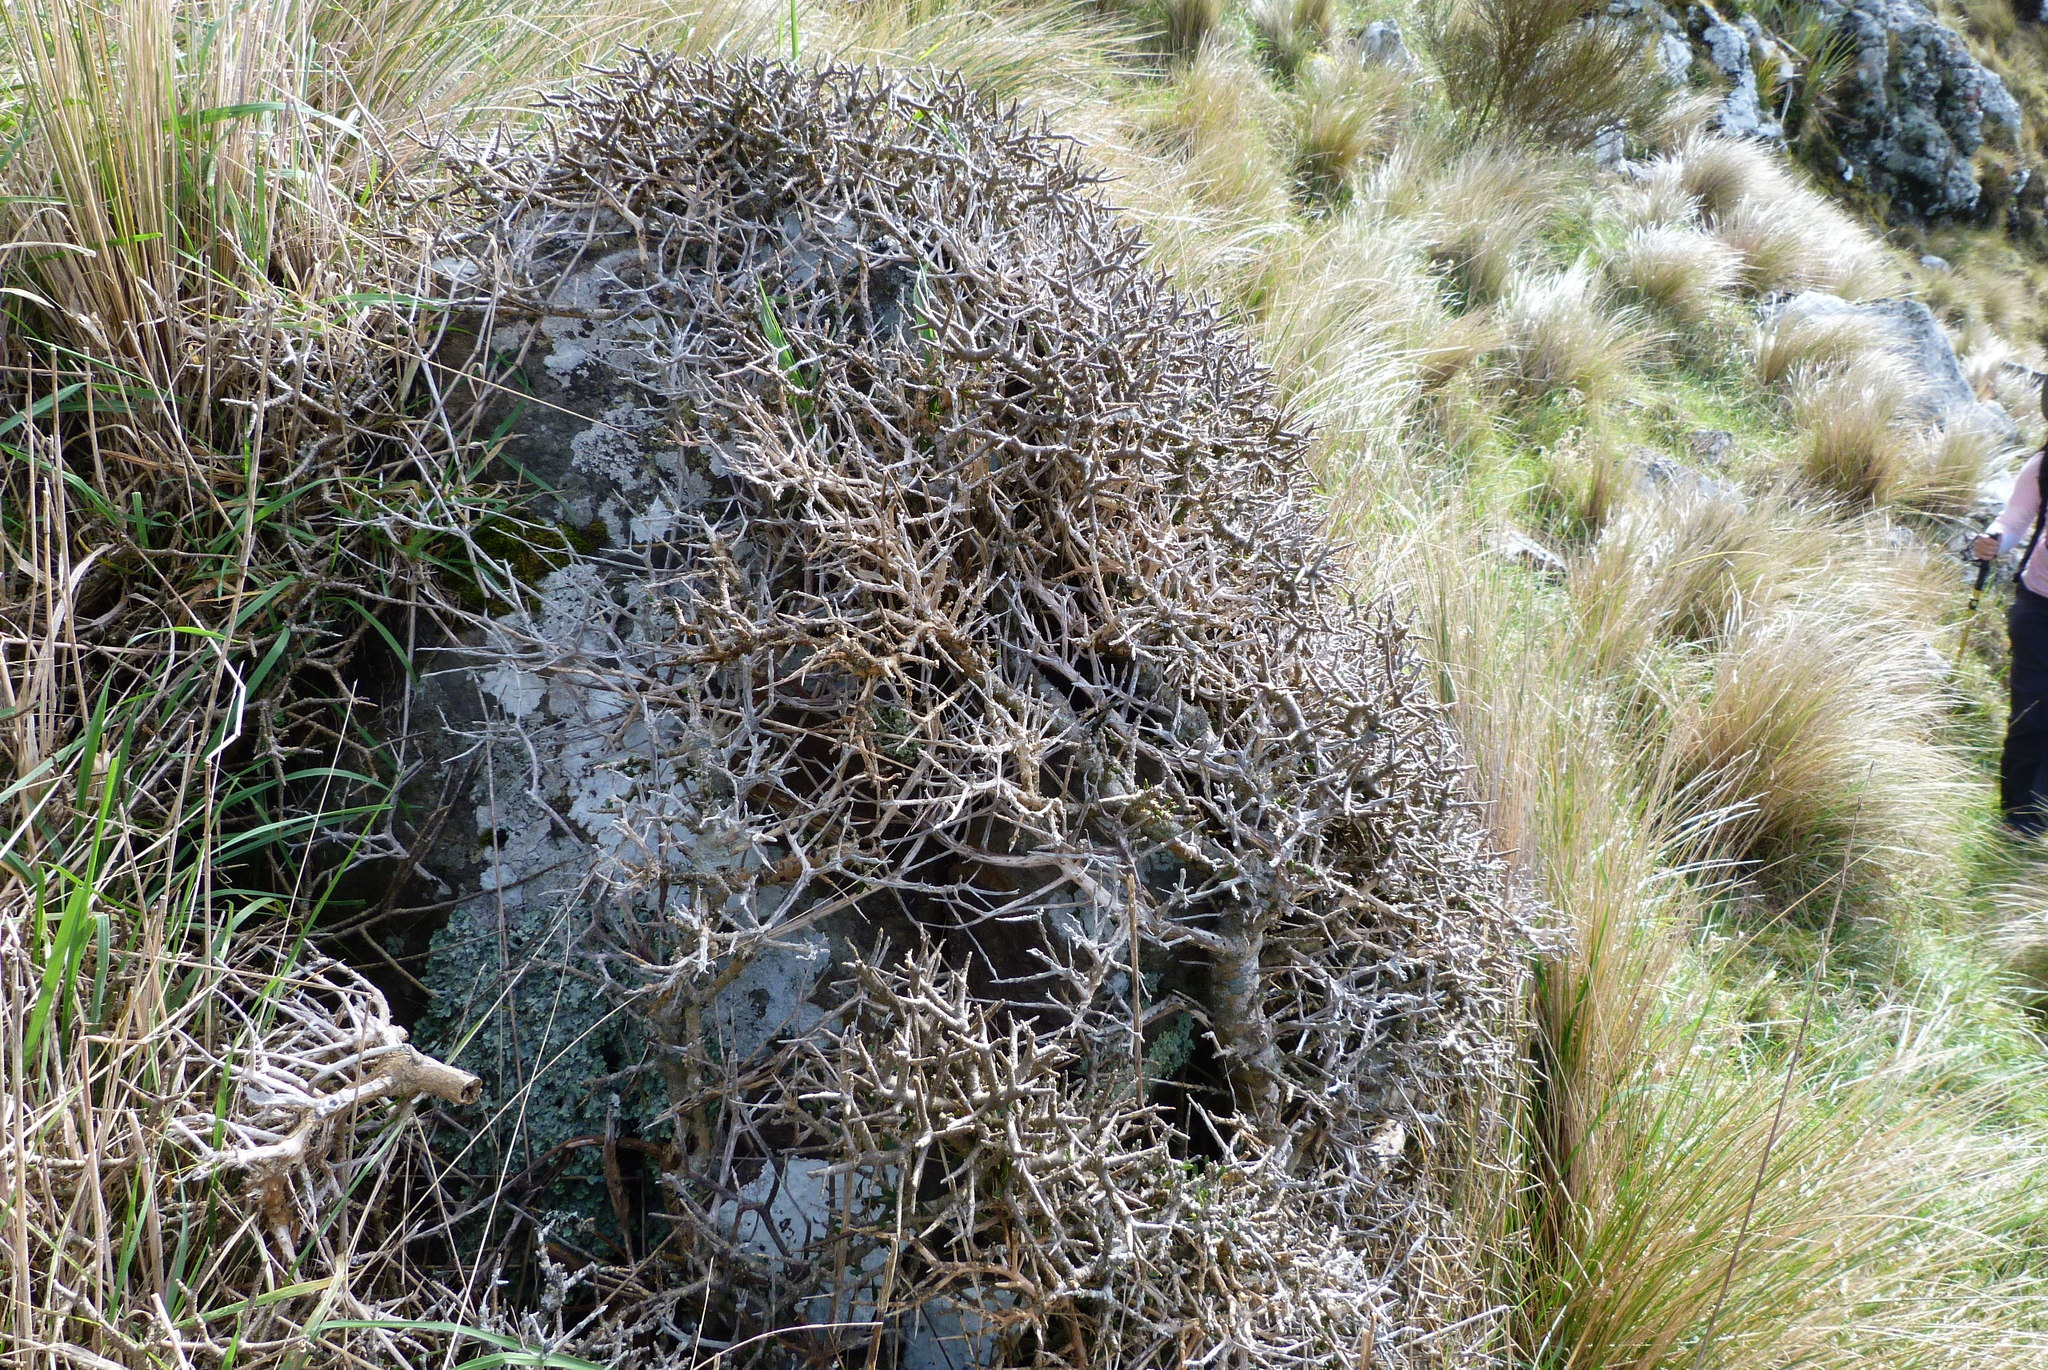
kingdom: Plantae
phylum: Tracheophyta
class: Magnoliopsida
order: Malpighiales
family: Violaceae
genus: Melicytus
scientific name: Melicytus alpinus
